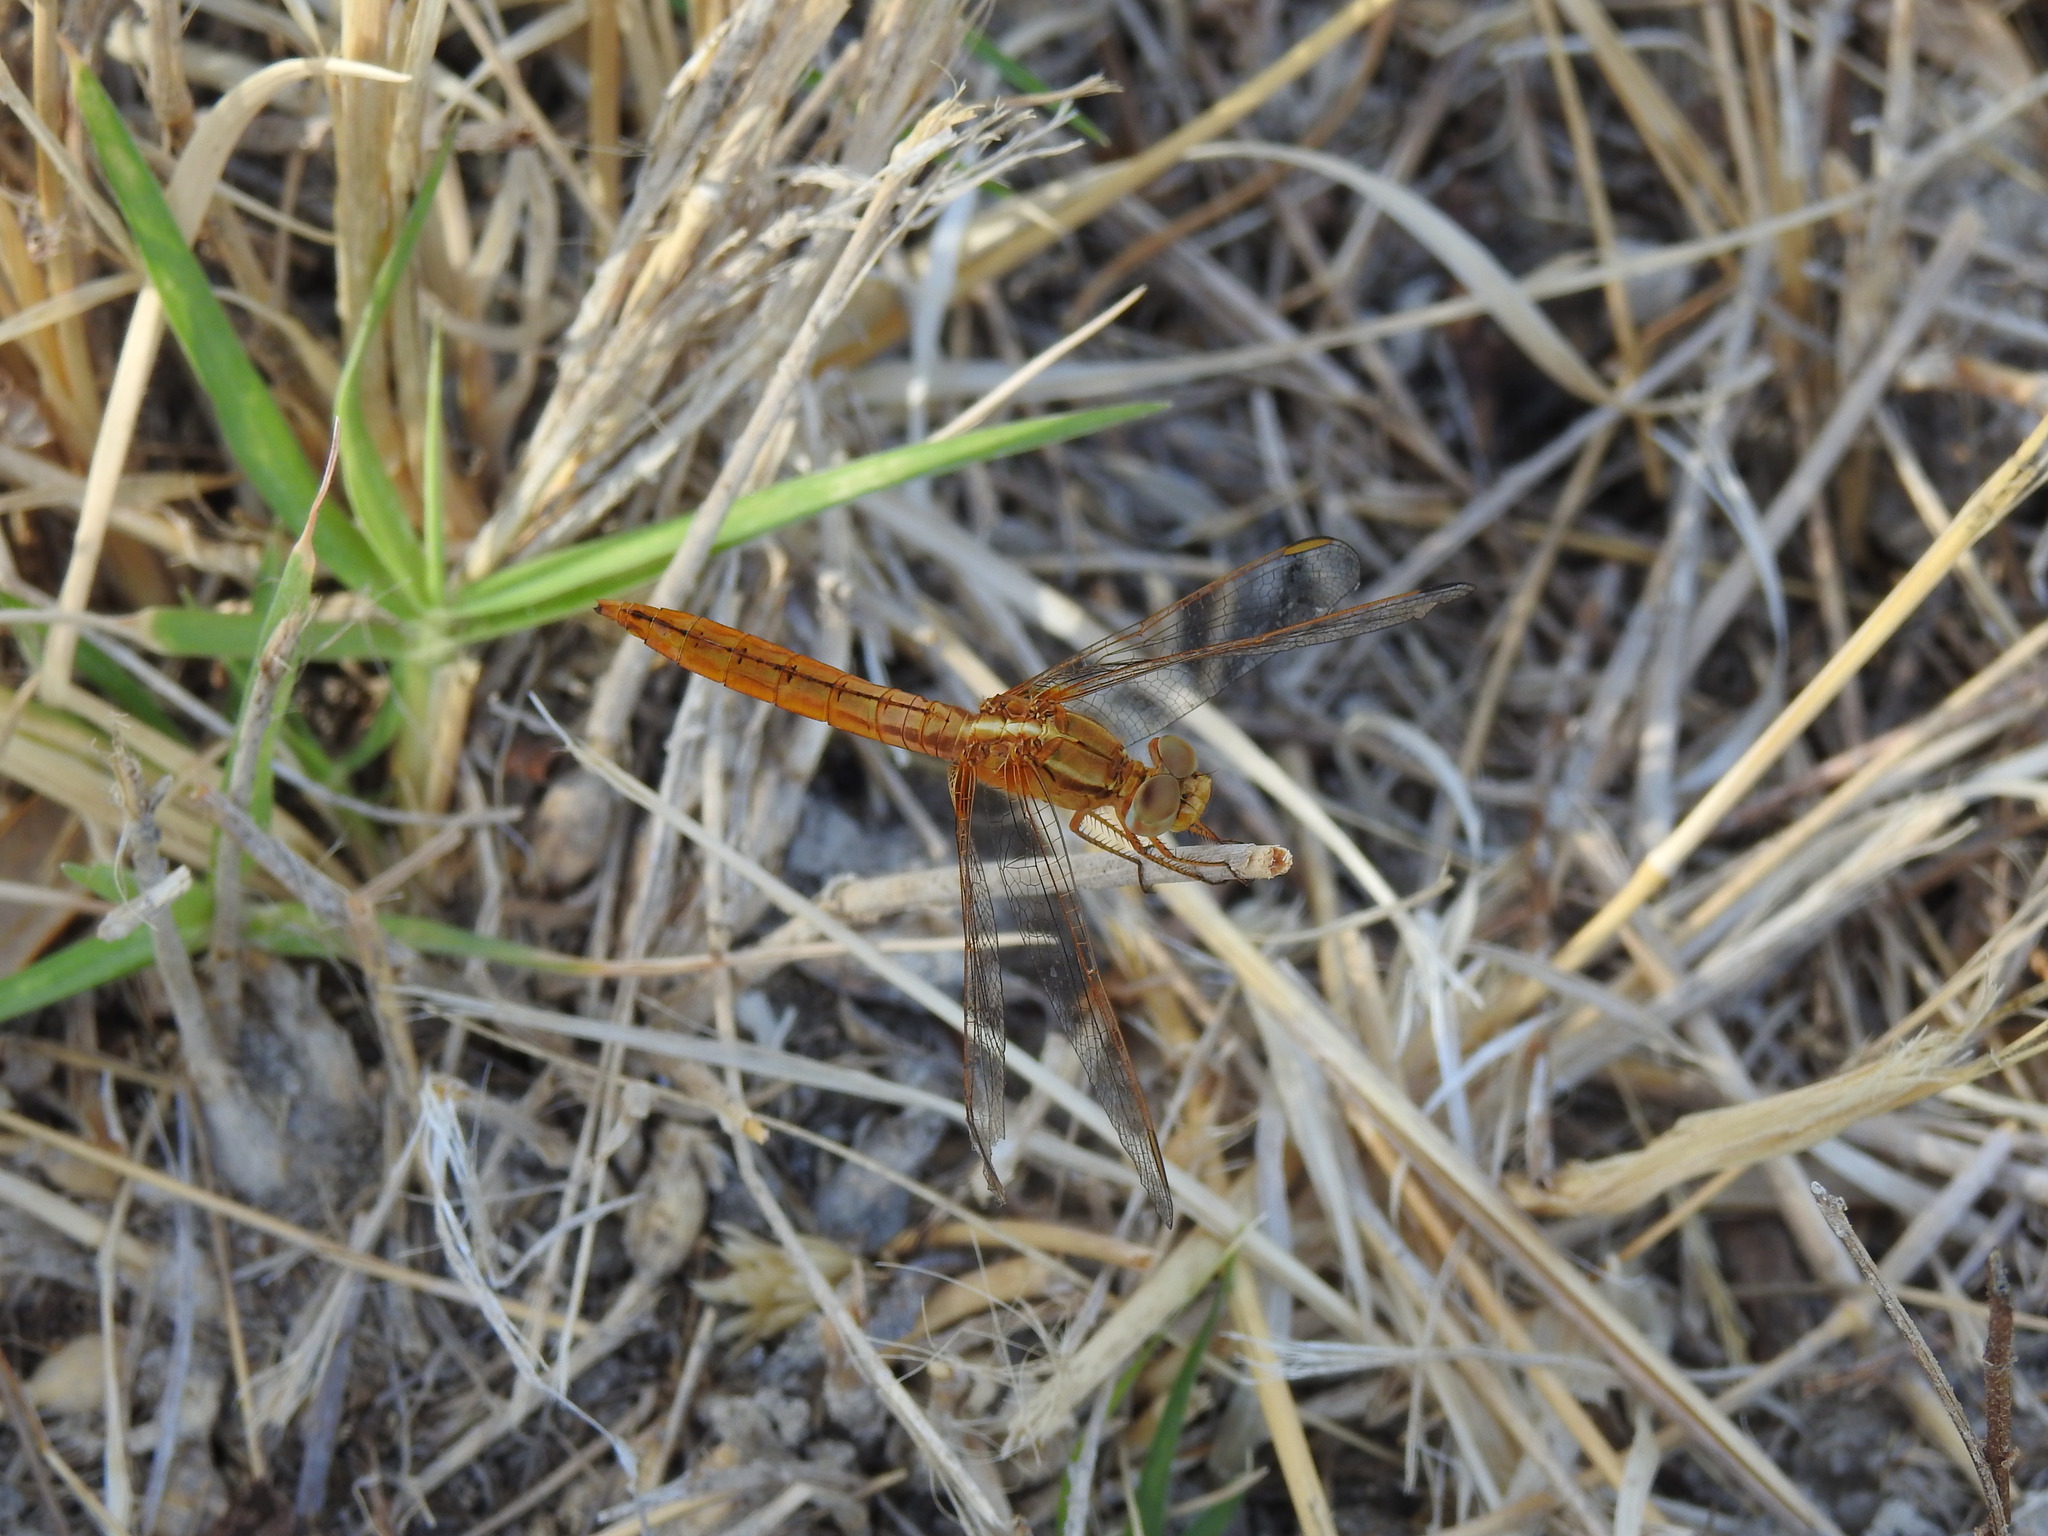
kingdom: Animalia
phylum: Arthropoda
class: Insecta
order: Odonata
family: Libellulidae
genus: Crocothemis
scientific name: Crocothemis erythraea
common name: Scarlet dragonfly
